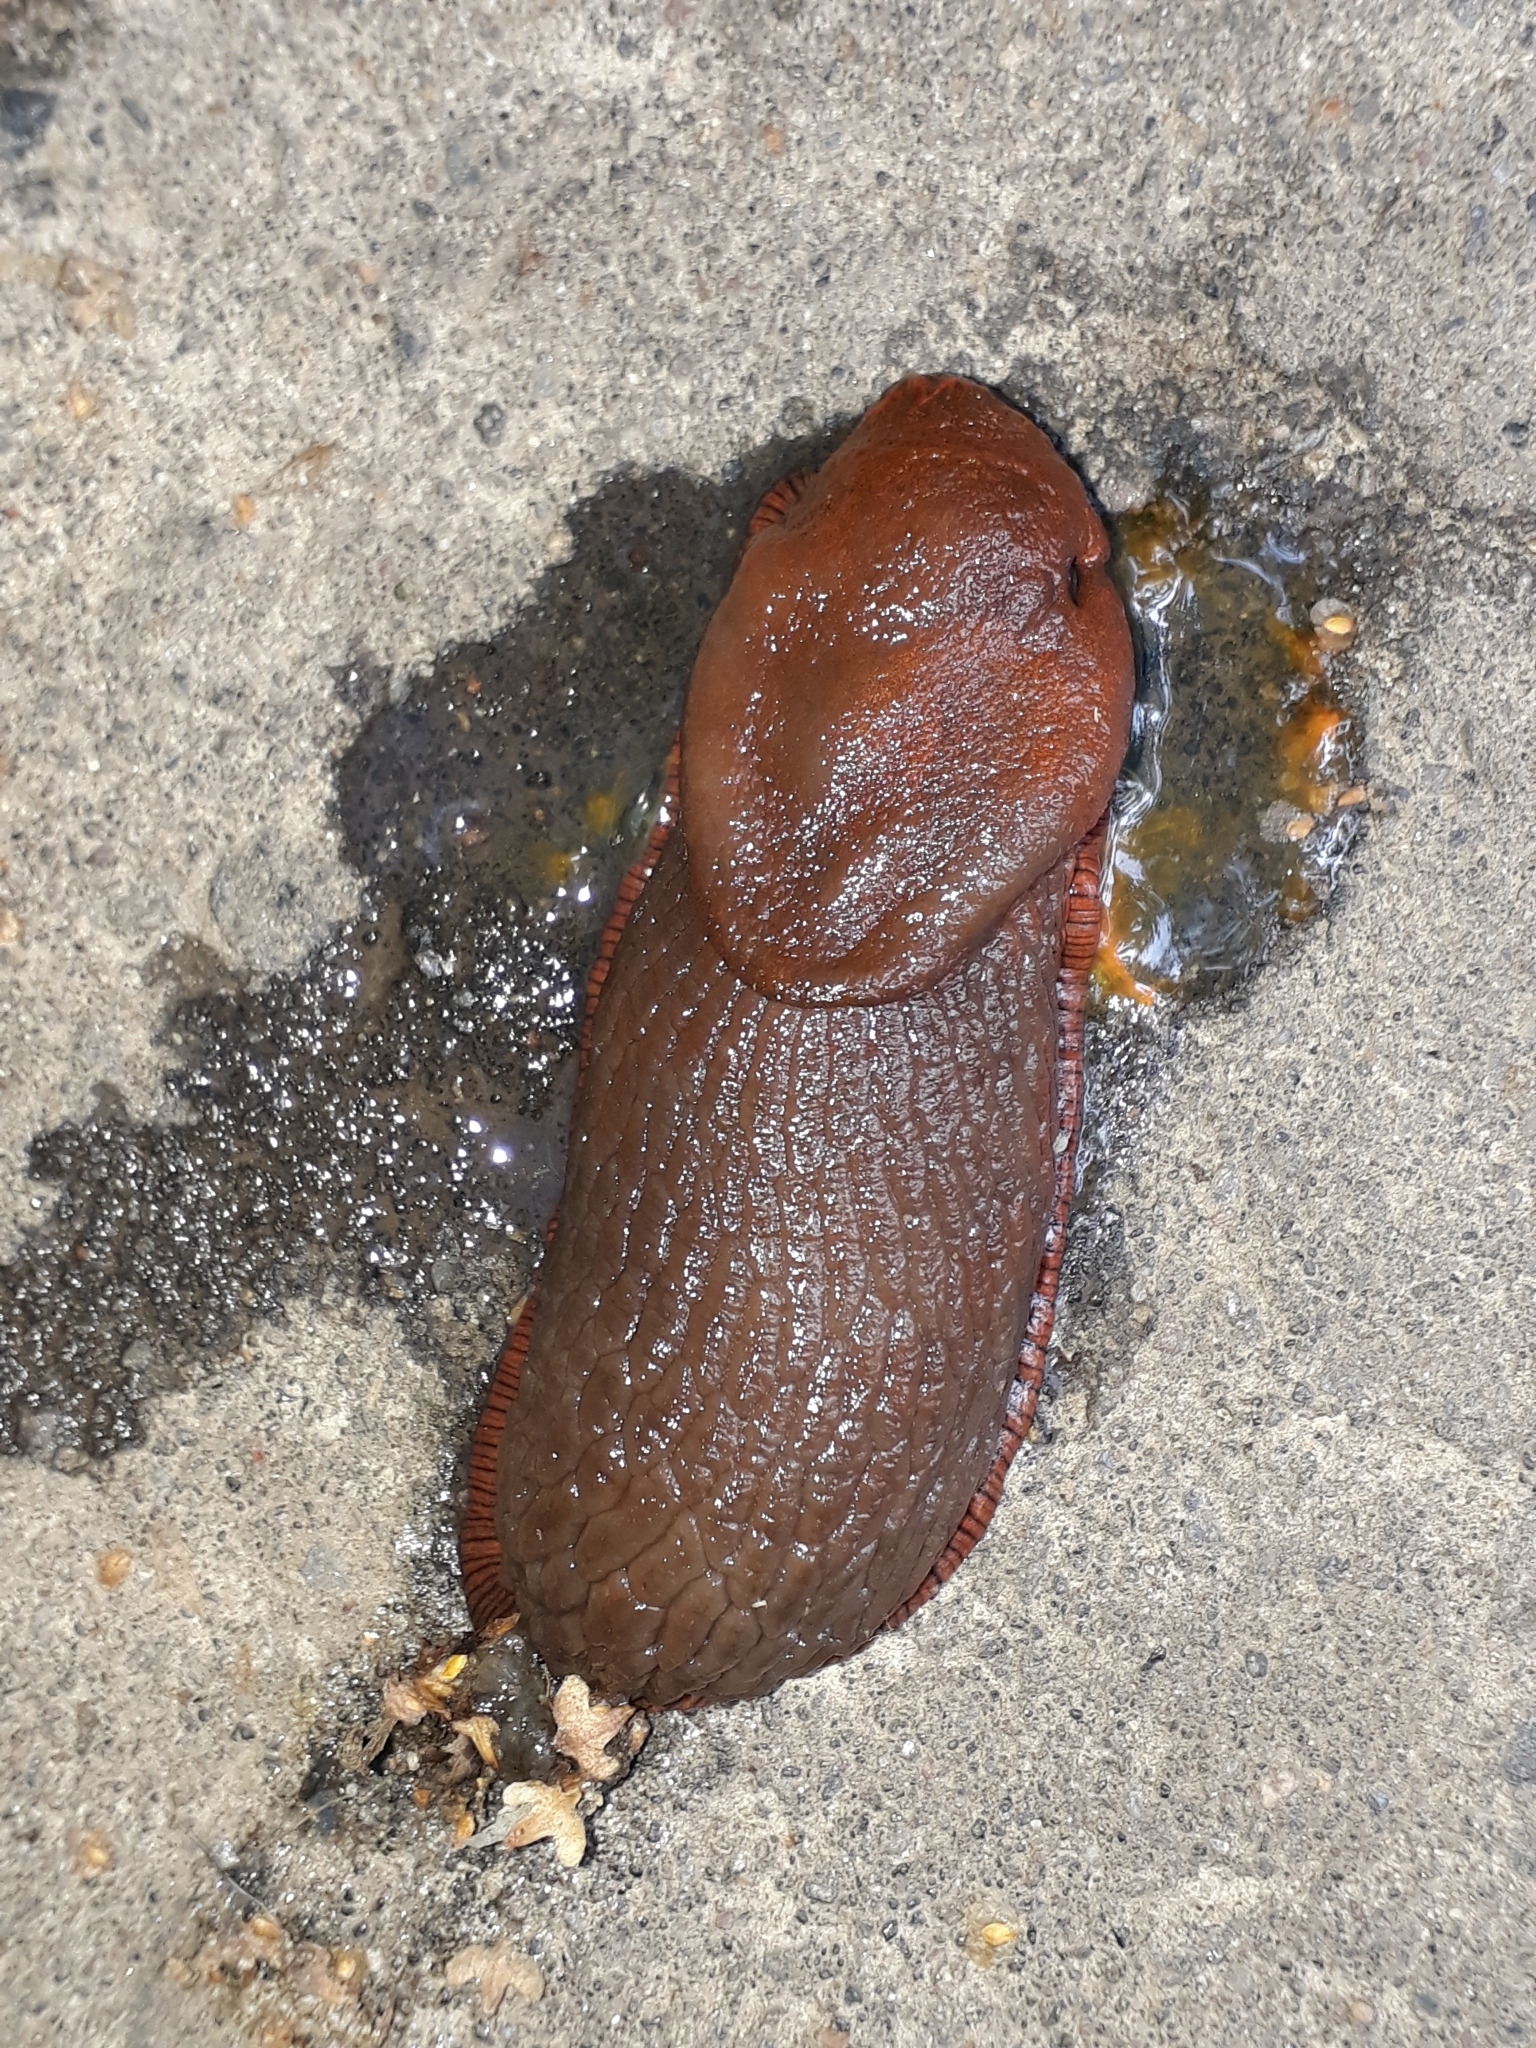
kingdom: Animalia
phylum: Mollusca
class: Gastropoda
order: Stylommatophora
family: Arionidae
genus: Arion
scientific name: Arion
